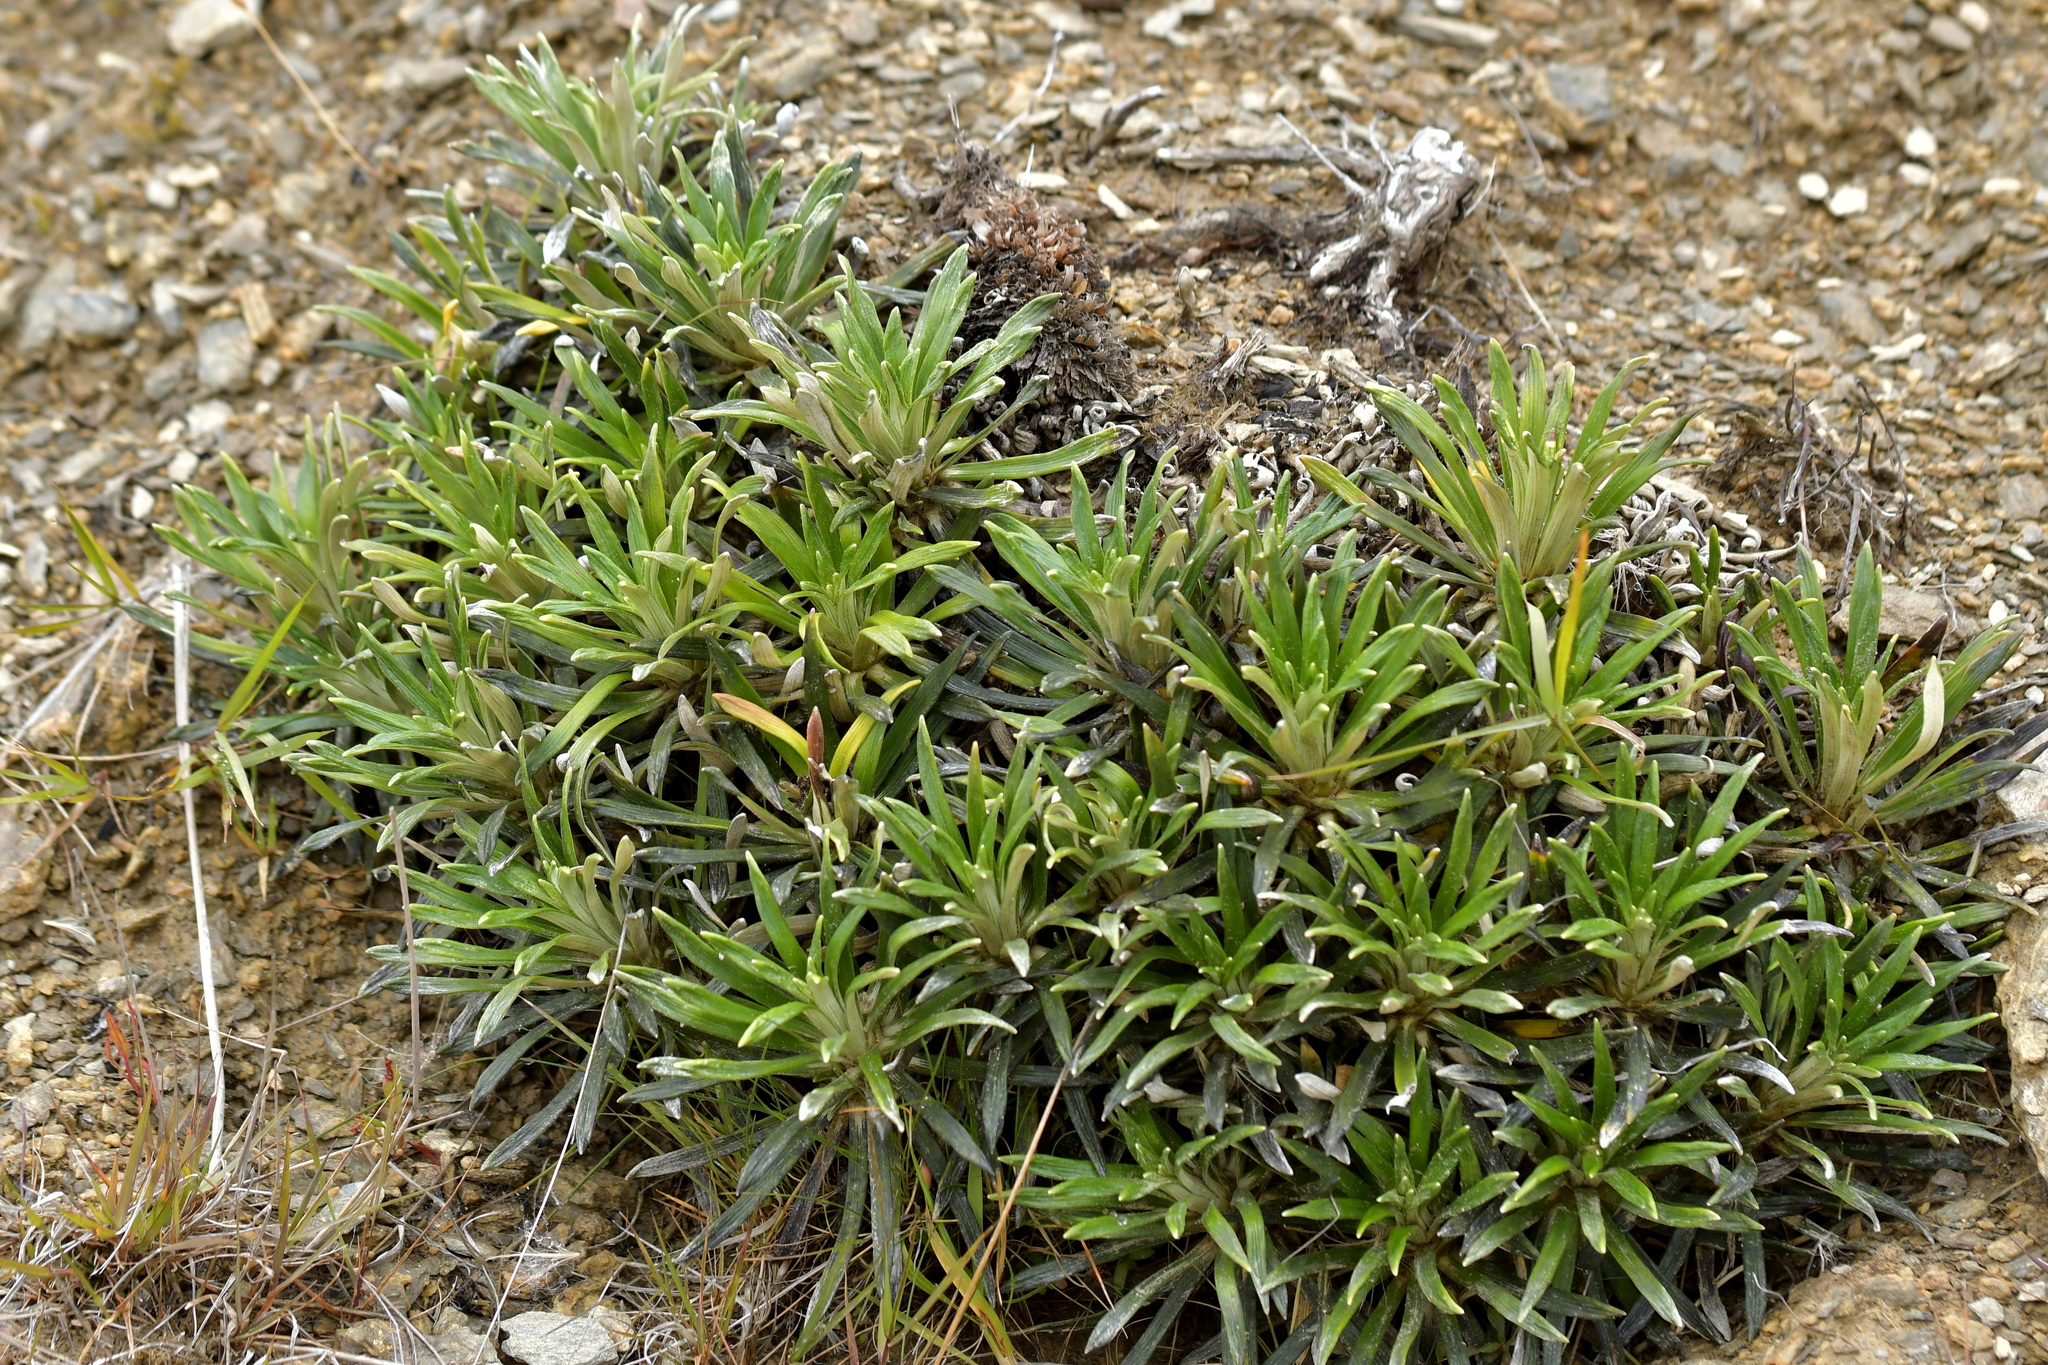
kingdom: Plantae
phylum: Tracheophyta
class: Magnoliopsida
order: Asterales
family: Asteraceae
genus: Celmisia
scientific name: Celmisia viscosa
